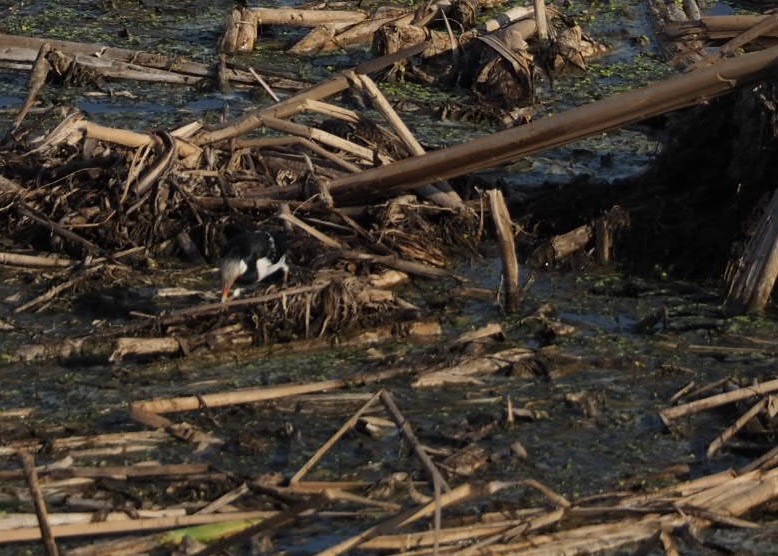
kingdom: Animalia
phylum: Chordata
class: Aves
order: Passeriformes
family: Sturnidae
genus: Gracupica
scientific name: Gracupica contra
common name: Pied myna
